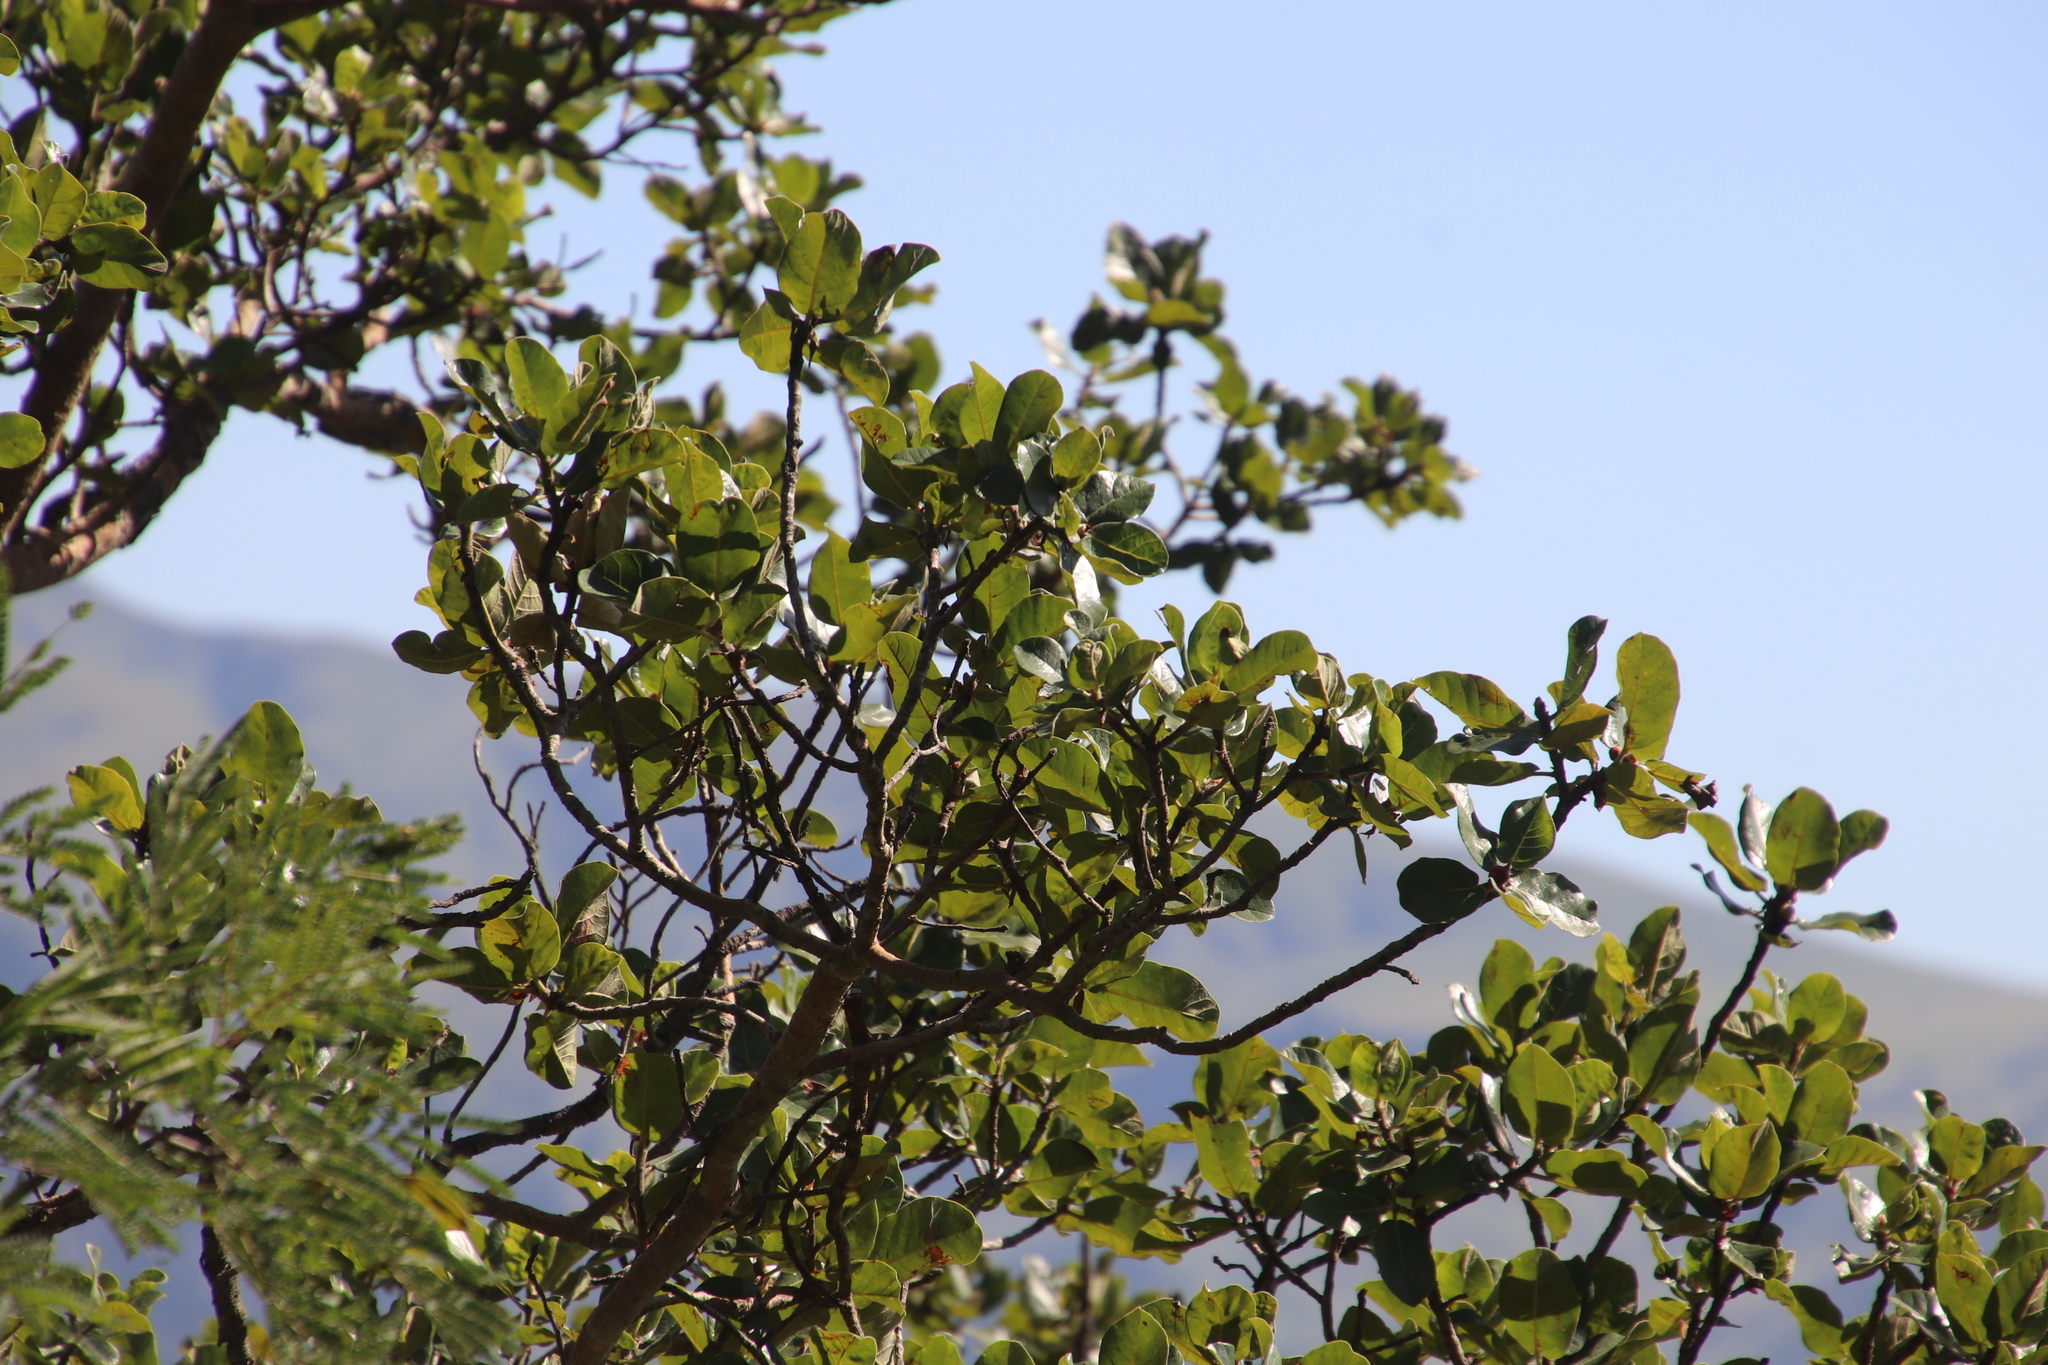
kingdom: Plantae
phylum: Tracheophyta
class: Magnoliopsida
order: Rosales
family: Moraceae
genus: Ficus
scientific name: Ficus glumosa
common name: Hairy rock fig
